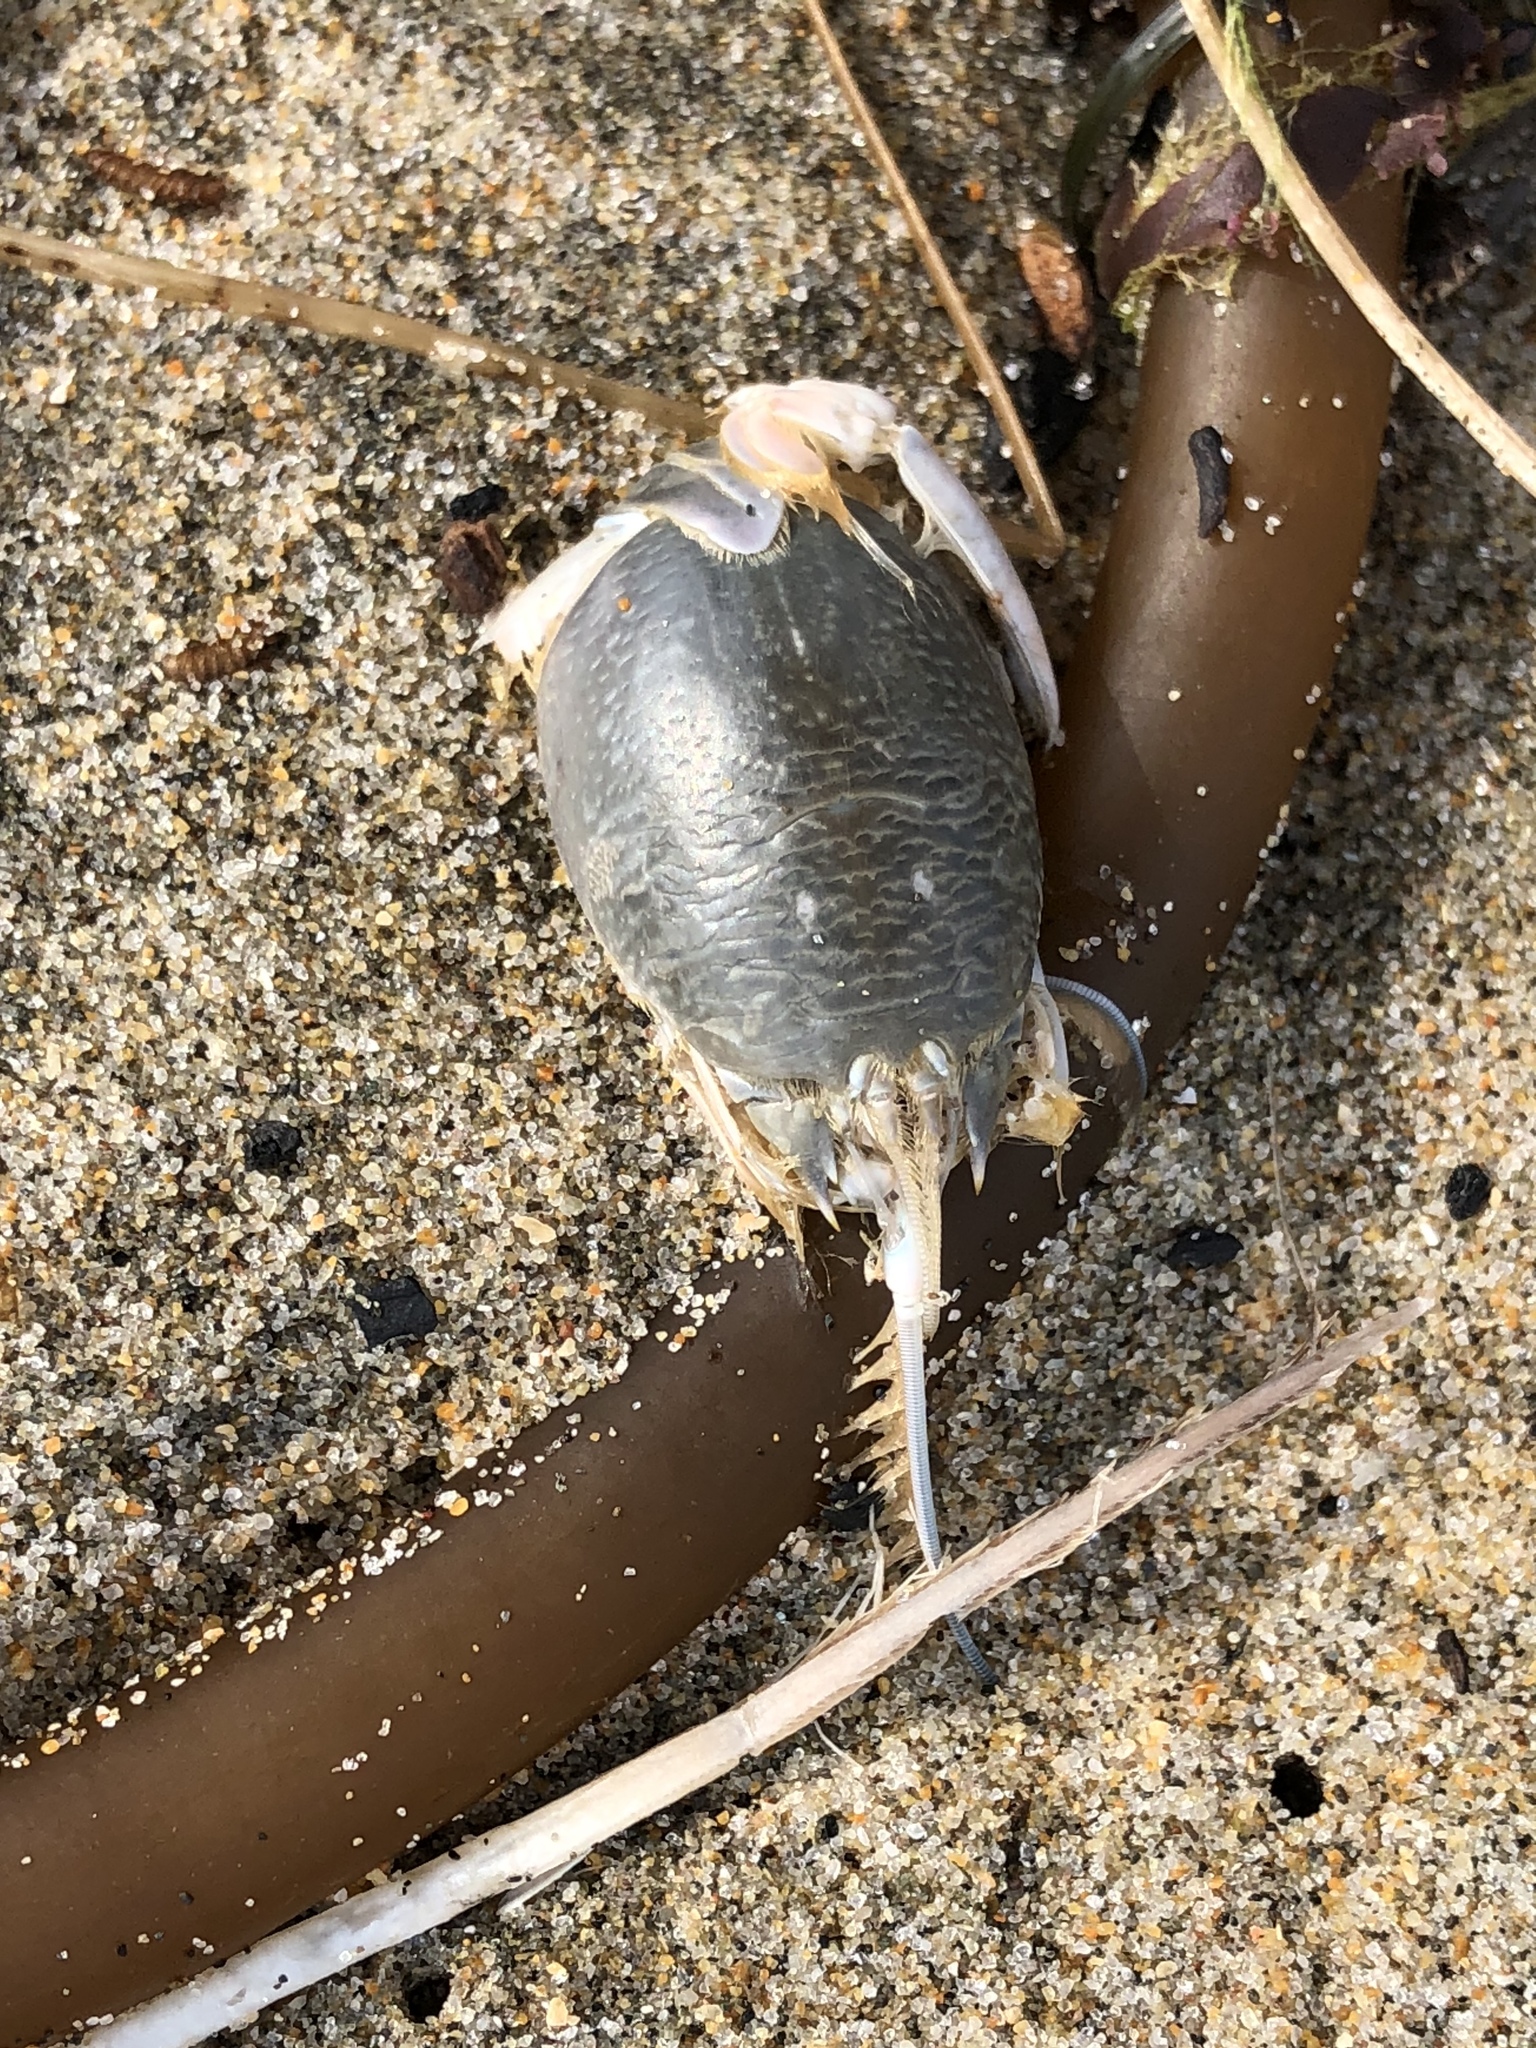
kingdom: Animalia
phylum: Arthropoda
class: Malacostraca
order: Decapoda
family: Hippidae
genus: Emerita
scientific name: Emerita analoga
